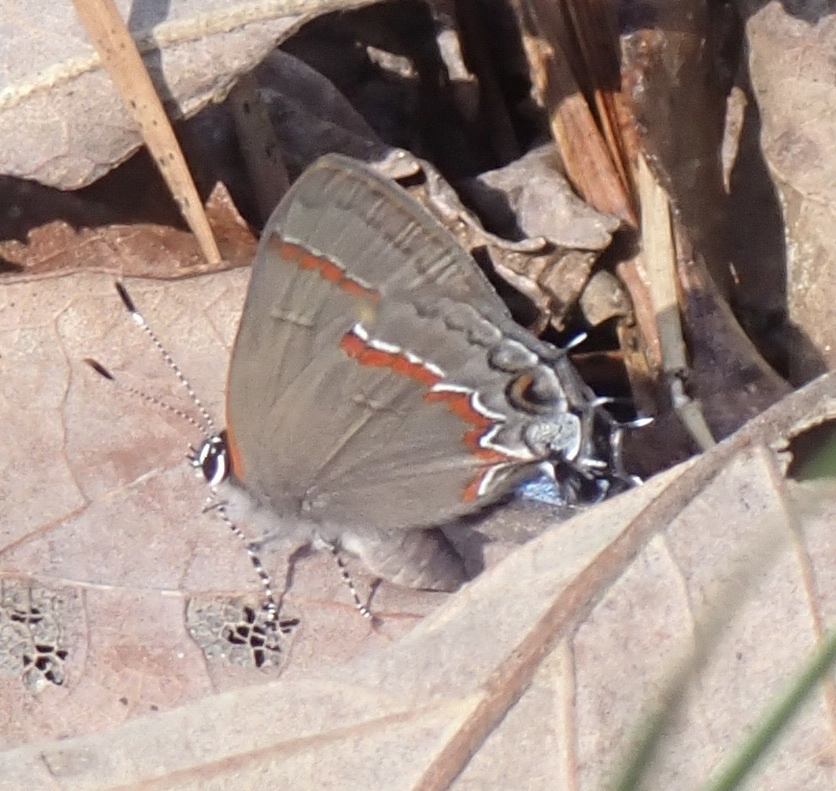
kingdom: Animalia
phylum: Arthropoda
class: Insecta
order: Lepidoptera
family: Lycaenidae
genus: Calycopis
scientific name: Calycopis cecrops
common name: Red-banded hairstreak
